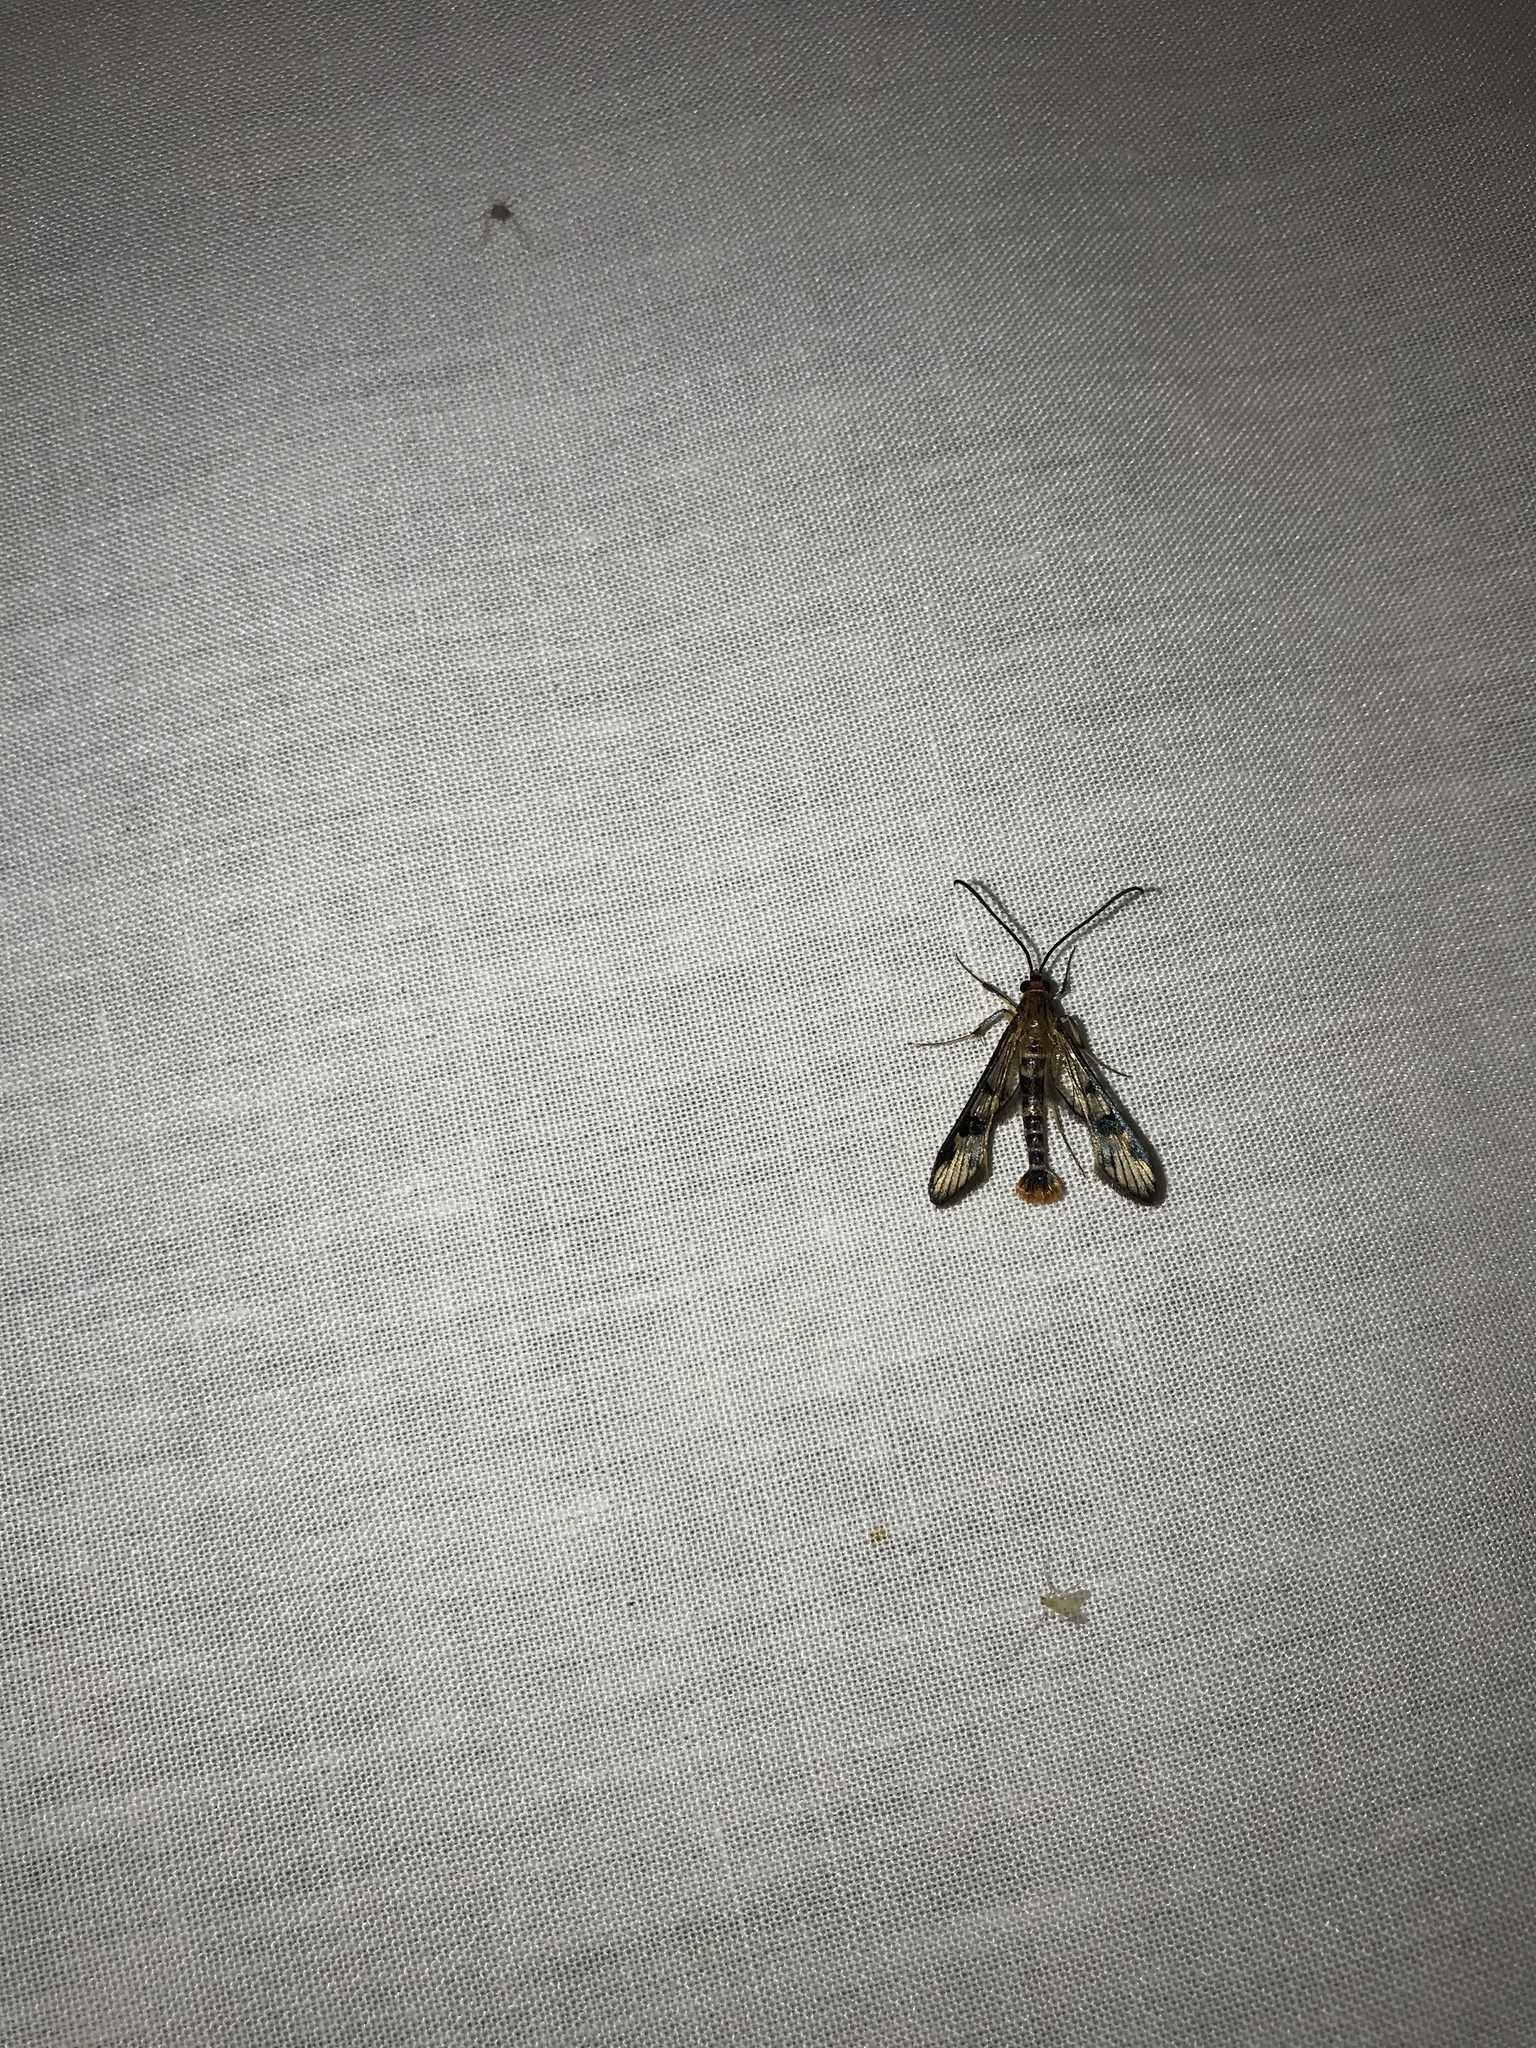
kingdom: Animalia
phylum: Arthropoda
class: Insecta
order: Lepidoptera
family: Sesiidae
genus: Synanthedon
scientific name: Synanthedon acerni
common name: Maple callus borer moth
